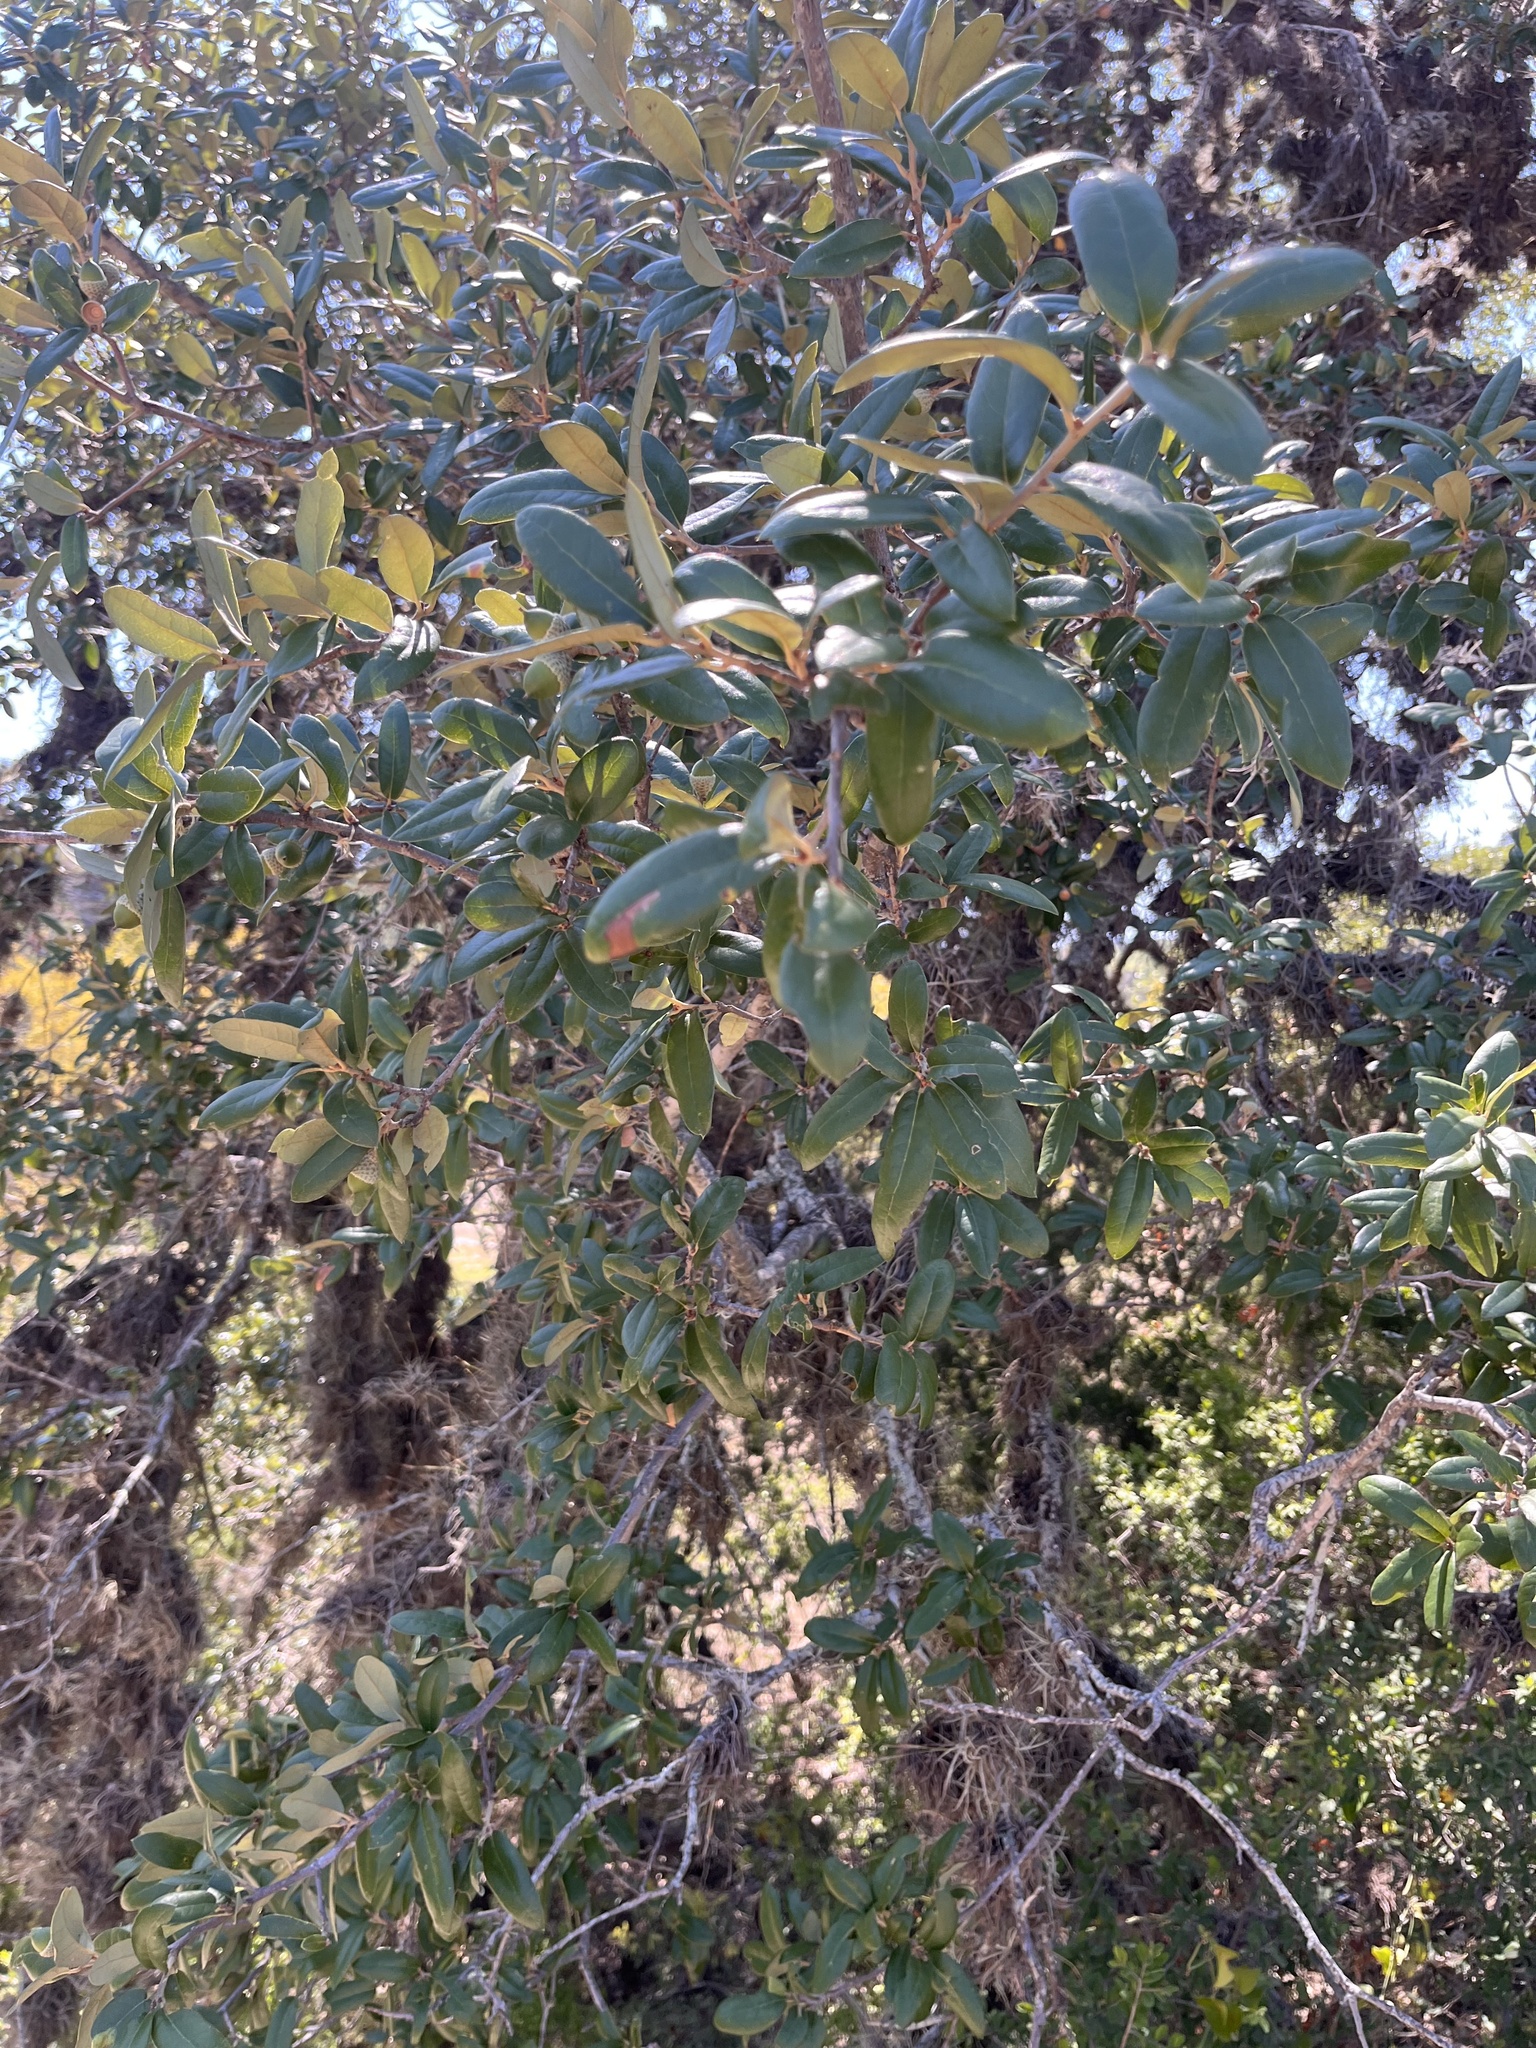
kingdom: Plantae
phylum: Tracheophyta
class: Magnoliopsida
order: Fagales
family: Fagaceae
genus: Quercus
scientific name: Quercus fusiformis
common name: Texas live oak
